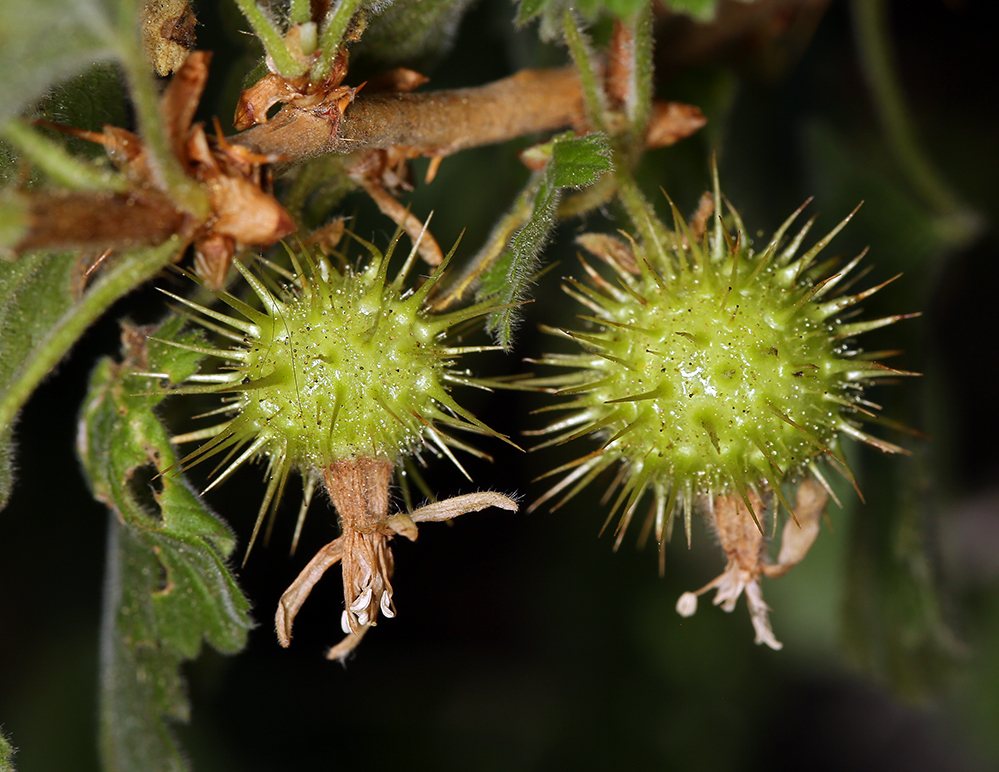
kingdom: Plantae
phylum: Tracheophyta
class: Magnoliopsida
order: Saxifragales
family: Grossulariaceae
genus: Ribes
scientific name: Ribes binominatum
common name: Trailing gooseberry
